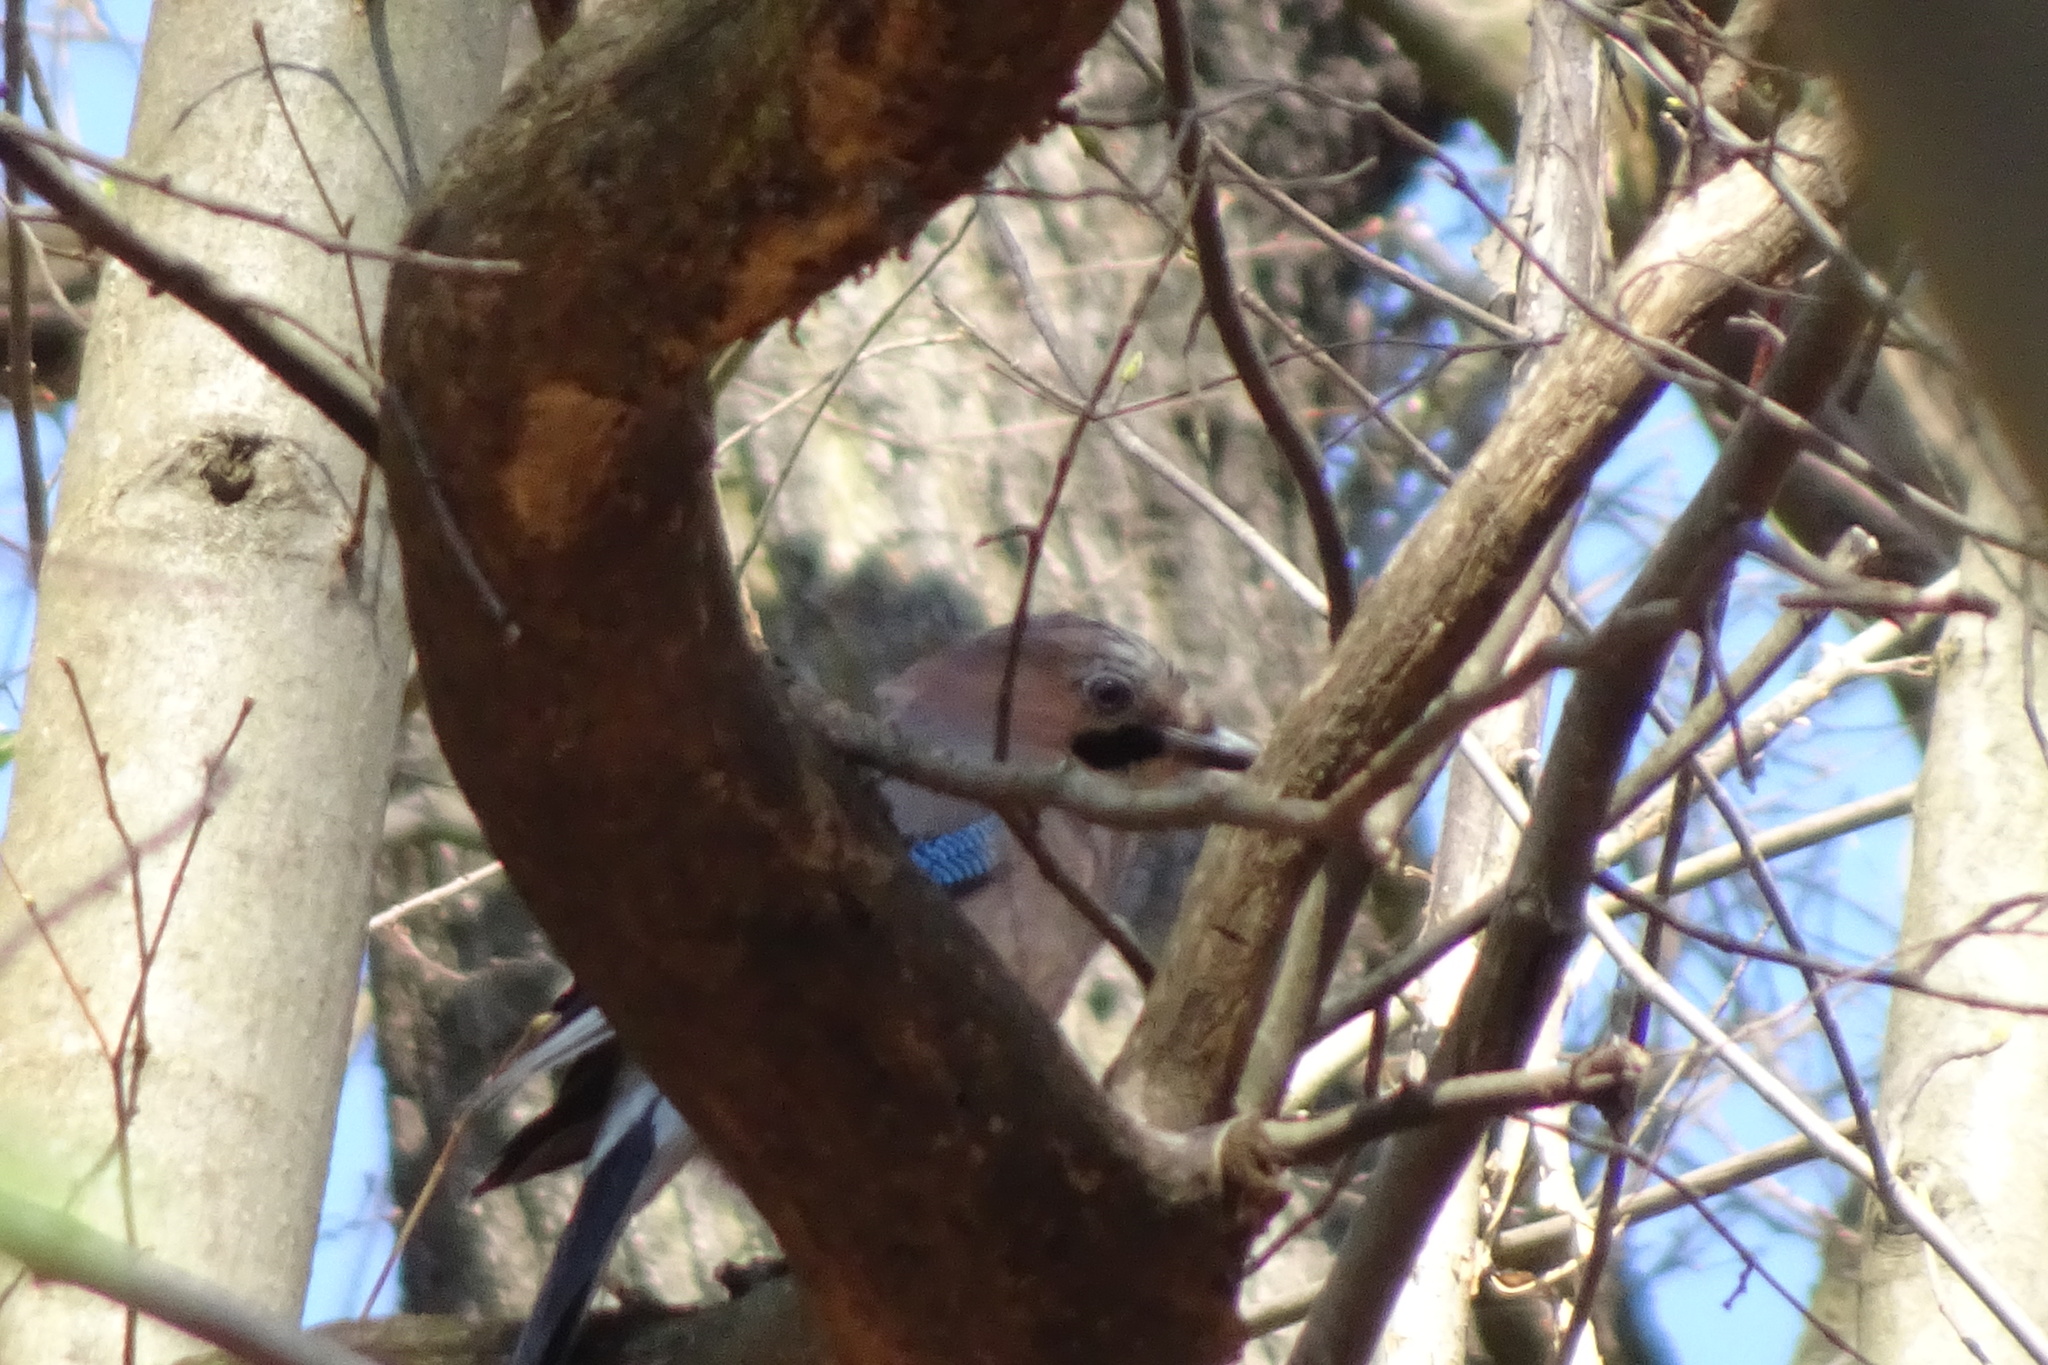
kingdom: Animalia
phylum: Chordata
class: Aves
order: Passeriformes
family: Corvidae
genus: Garrulus
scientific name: Garrulus glandarius
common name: Eurasian jay
